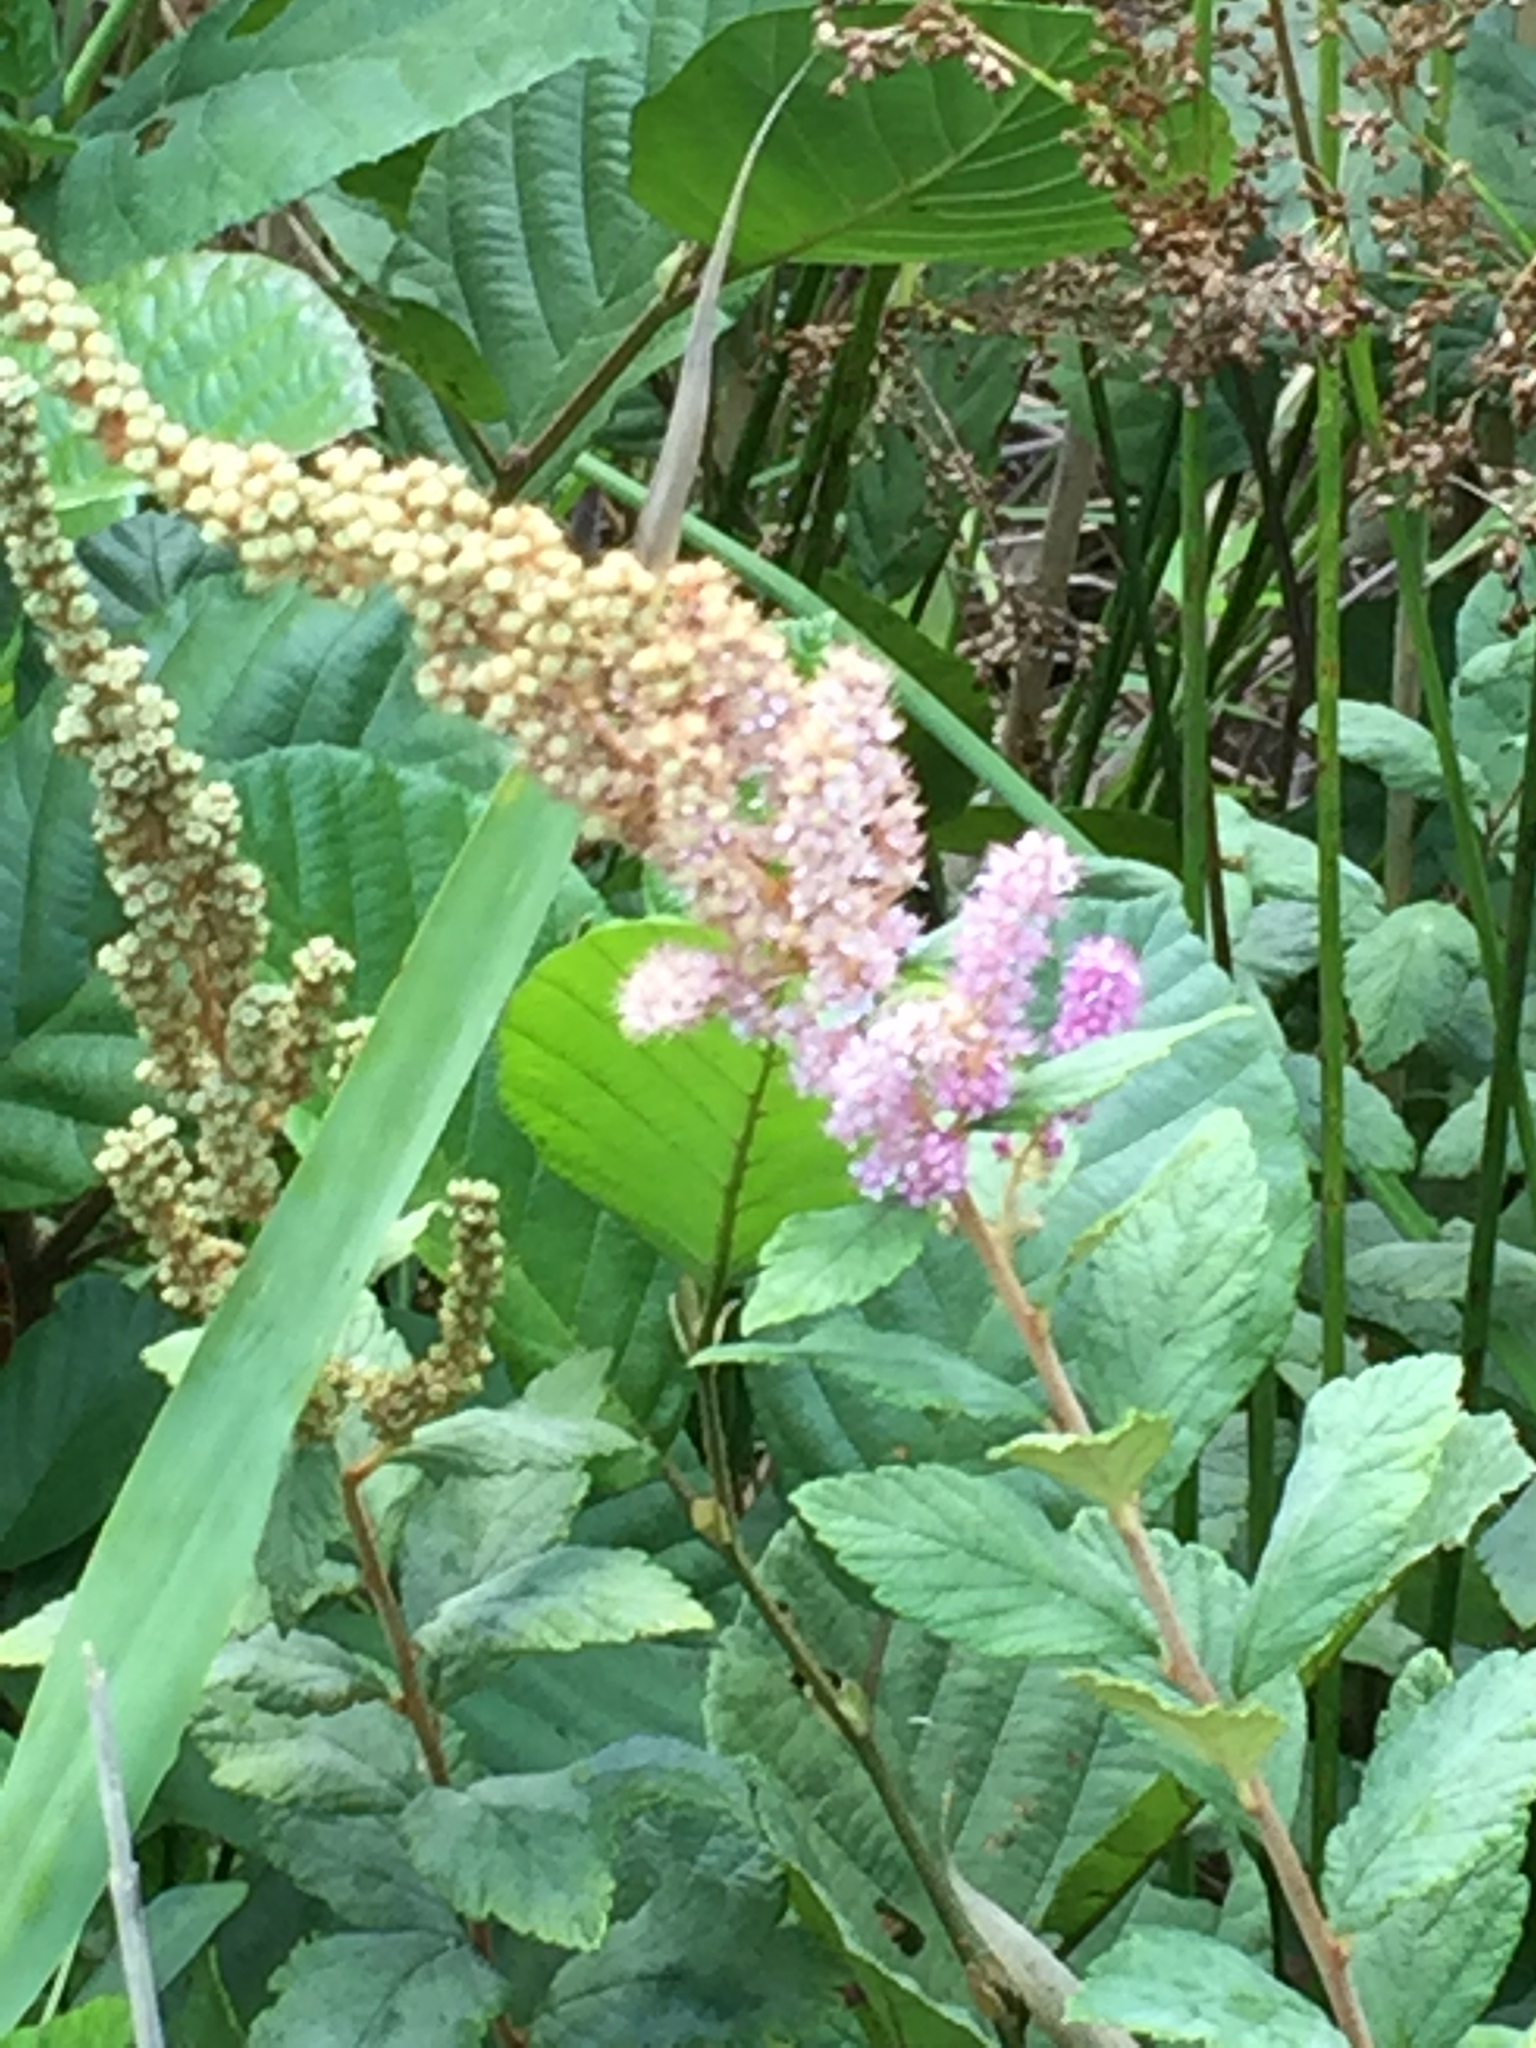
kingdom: Plantae
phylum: Tracheophyta
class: Magnoliopsida
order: Rosales
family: Rosaceae
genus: Spiraea
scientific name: Spiraea tomentosa
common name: Hardhack
